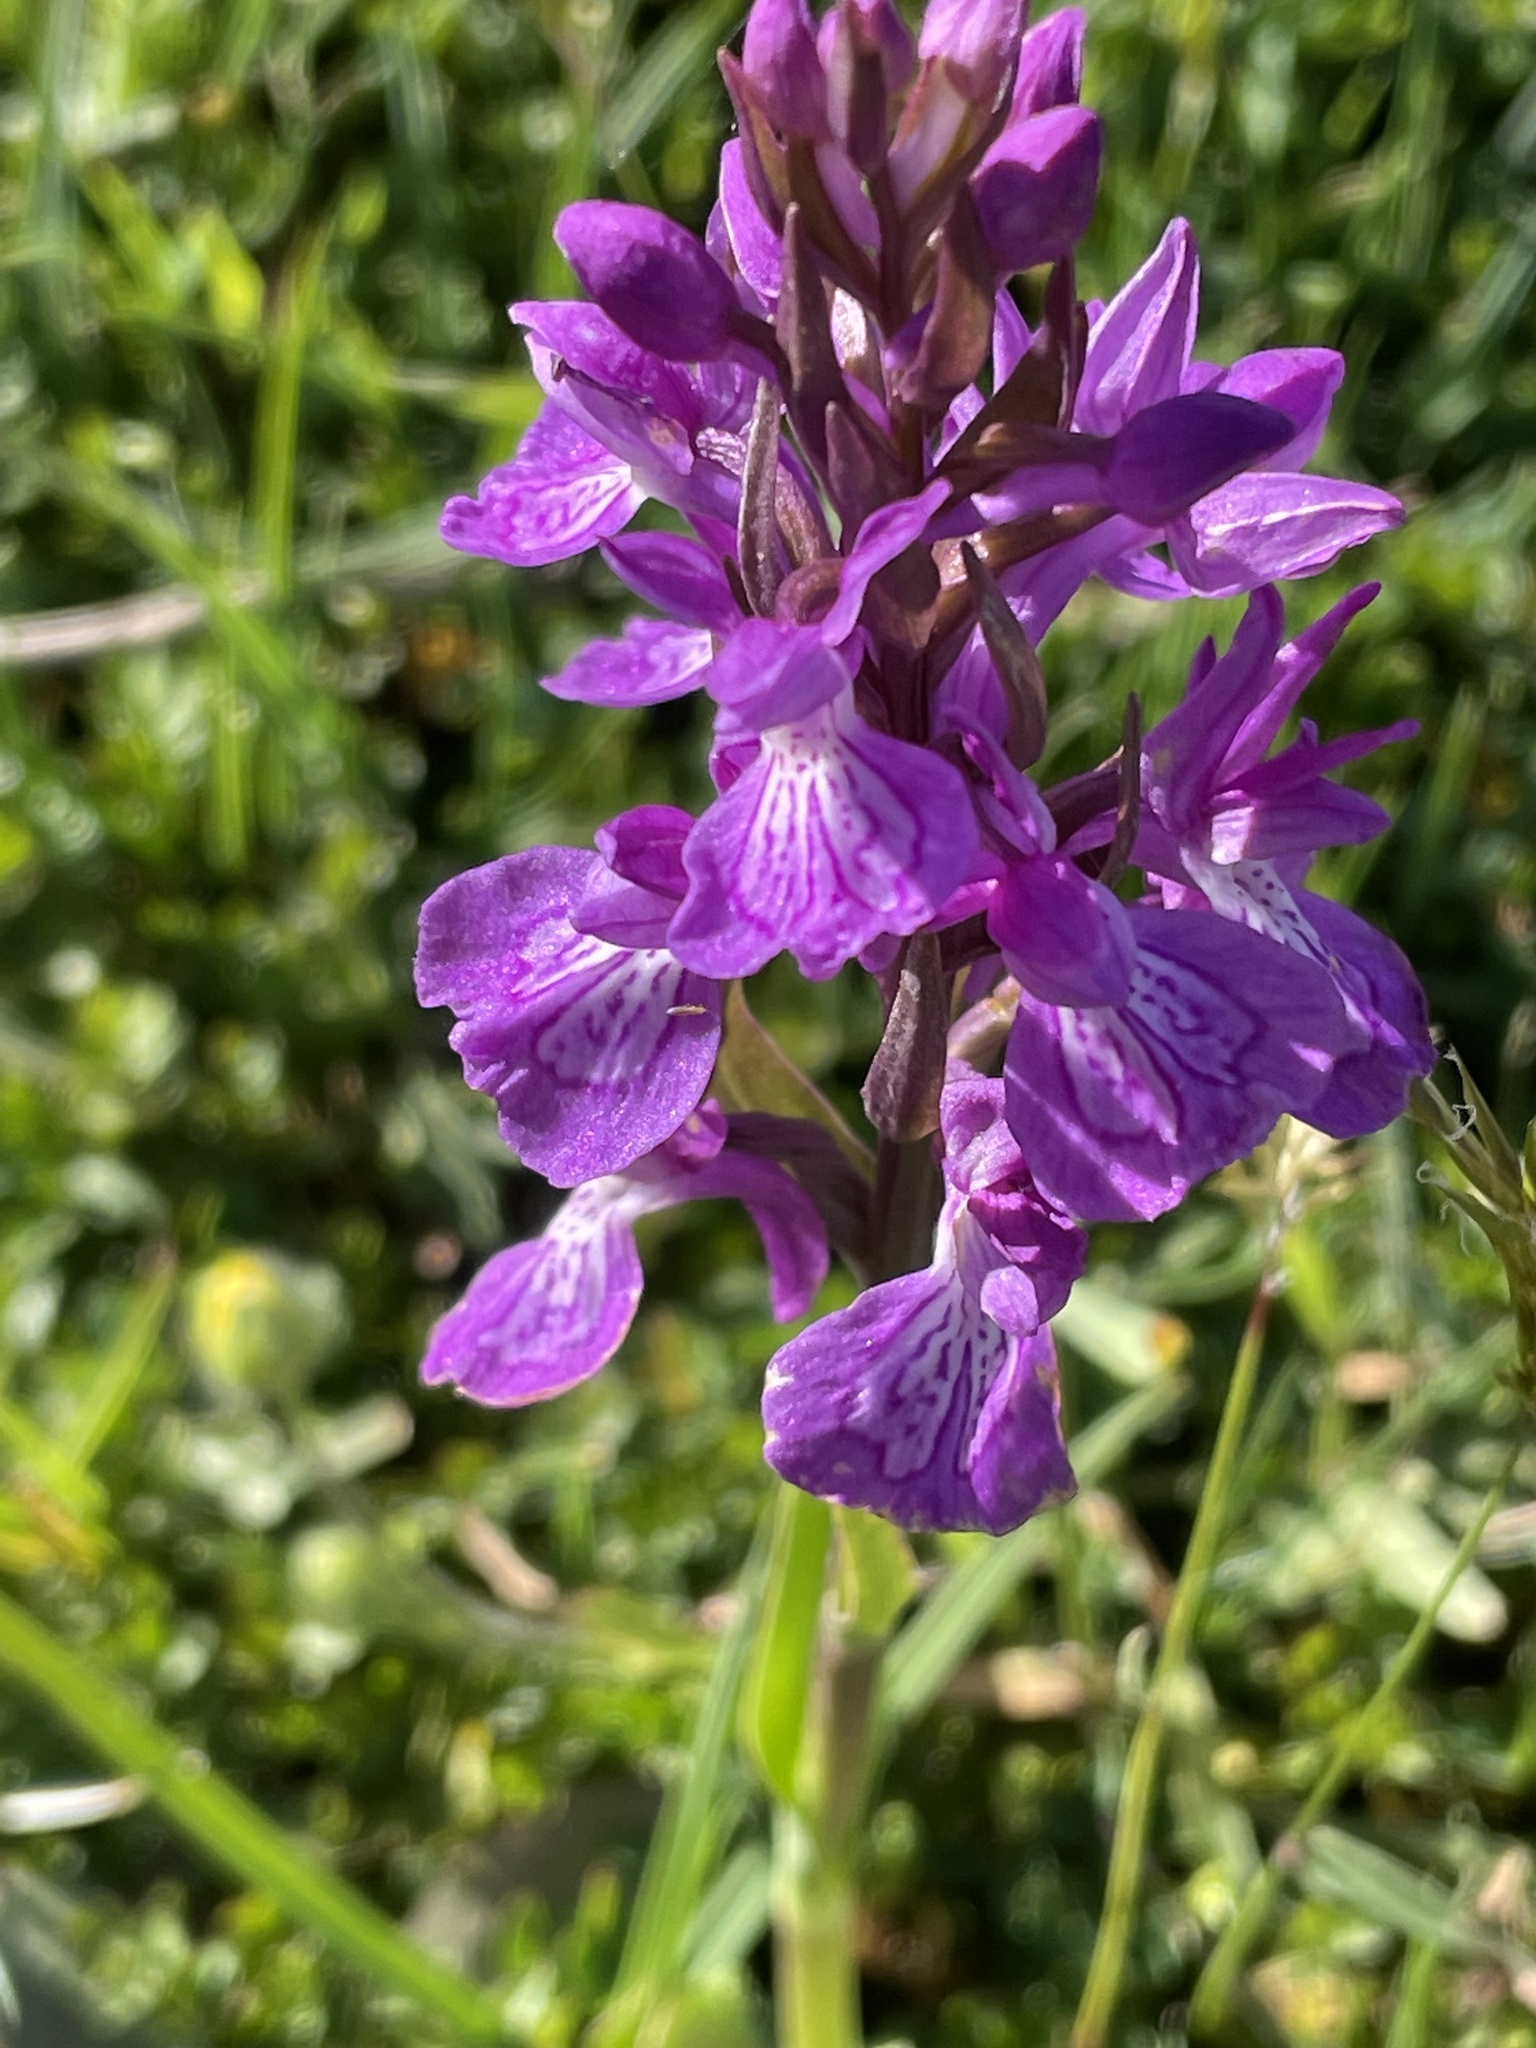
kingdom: Plantae
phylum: Tracheophyta
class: Liliopsida
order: Asparagales
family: Orchidaceae
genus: Dactylorhiza
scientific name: Dactylorhiza elata
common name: Stately dactylorhiza
